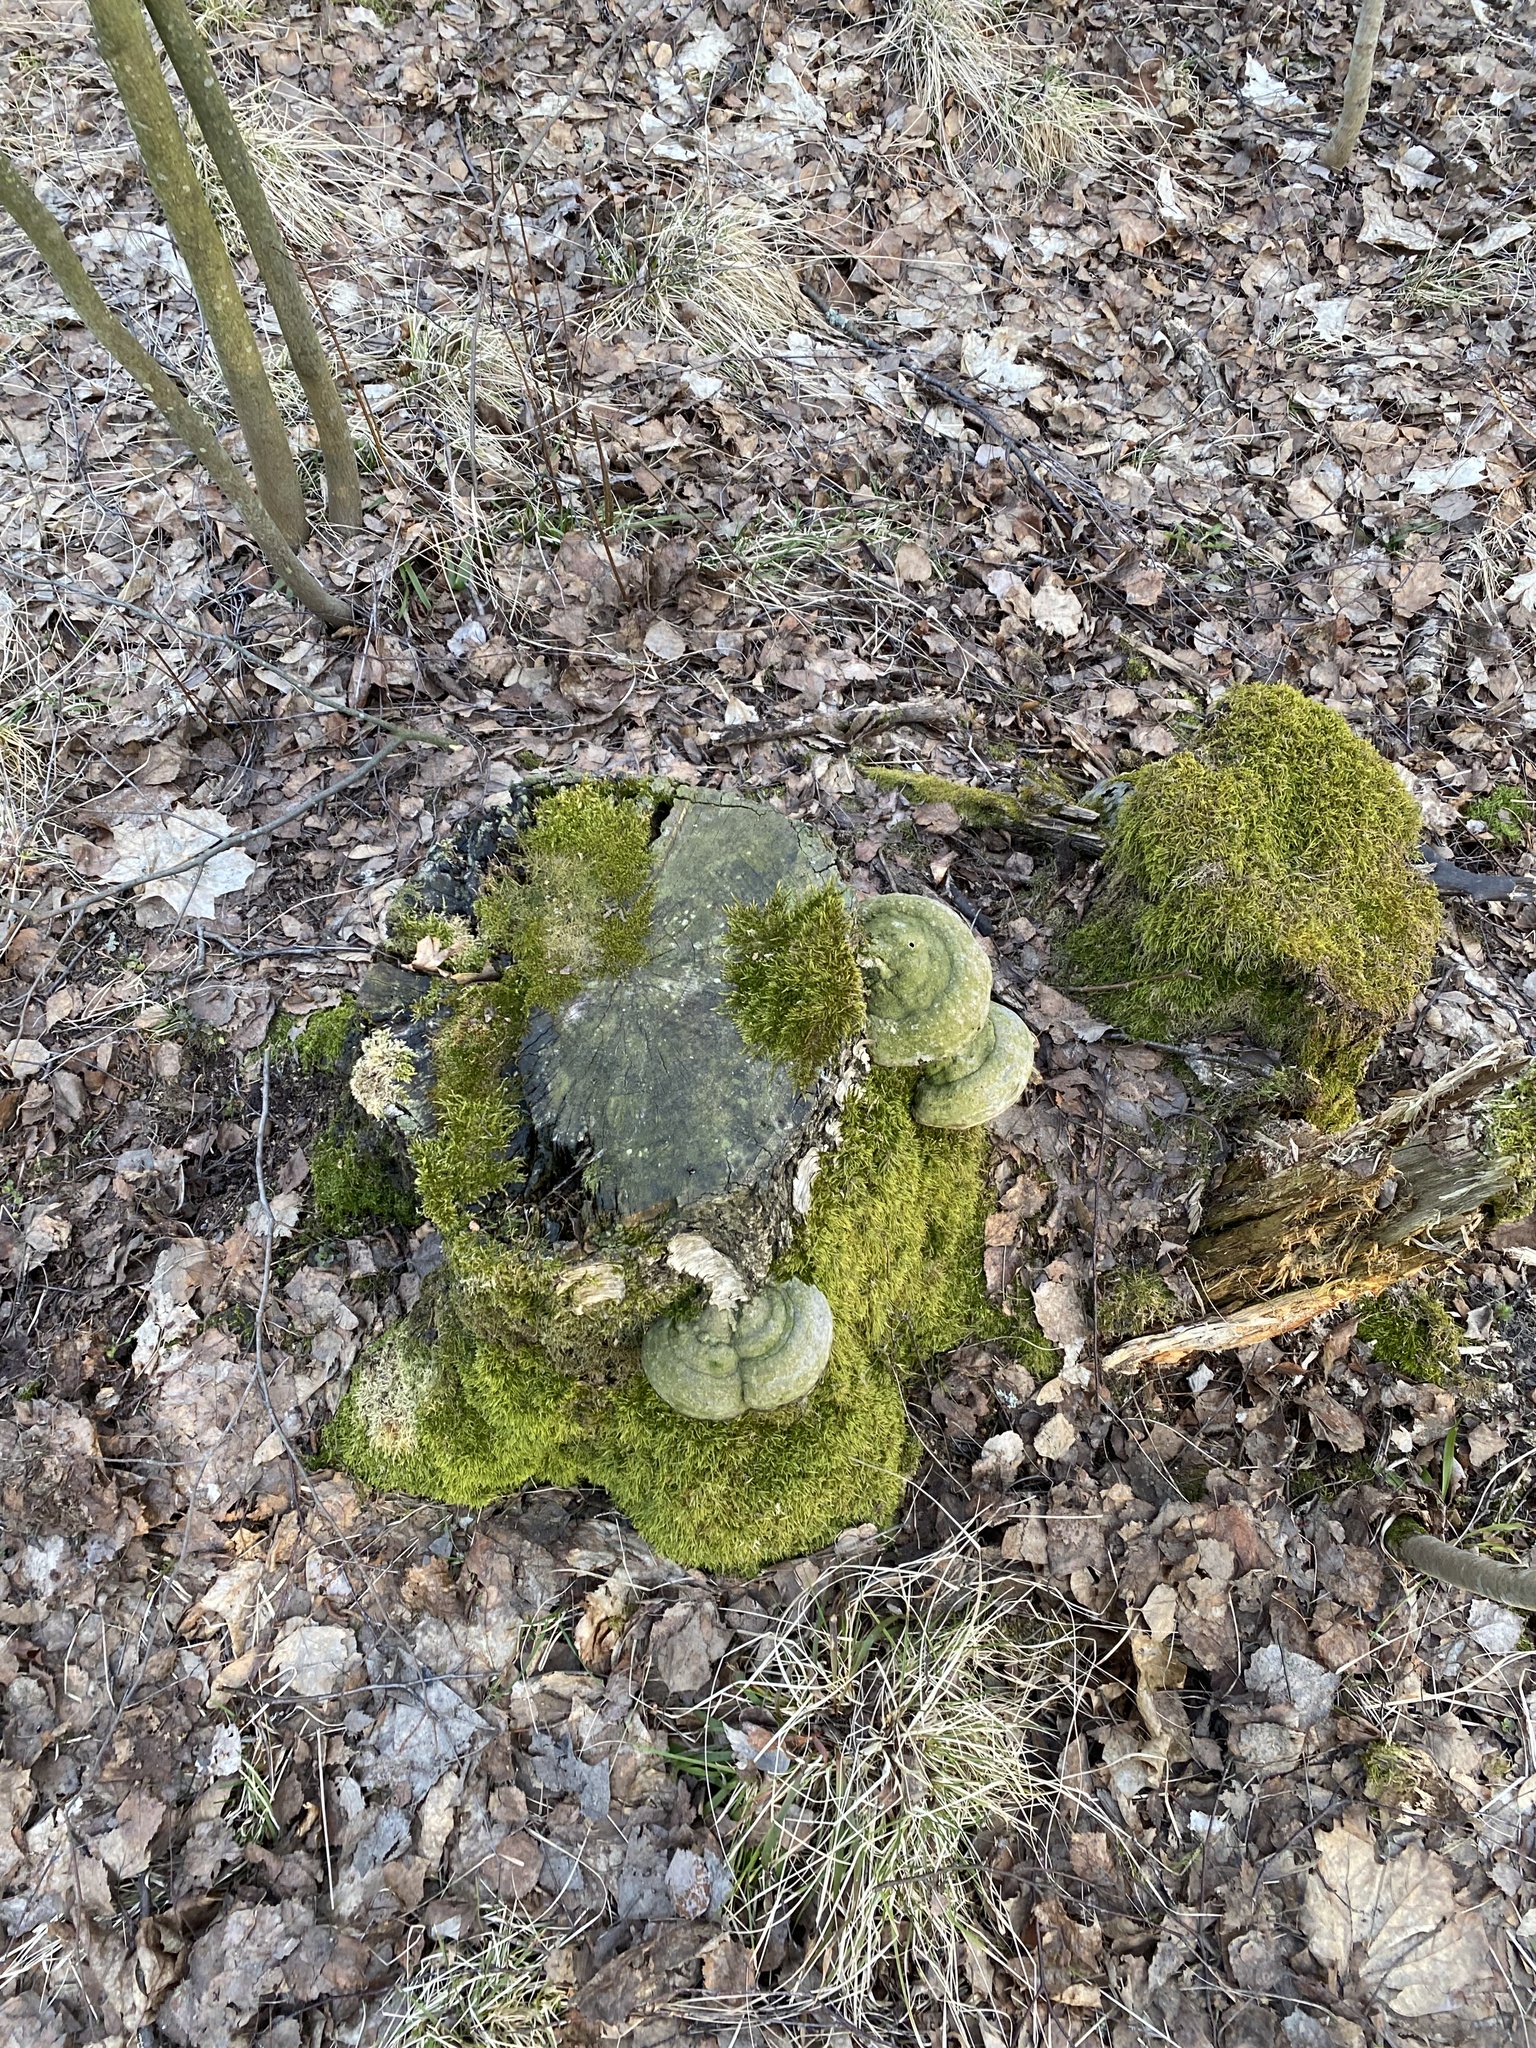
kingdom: Fungi
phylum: Basidiomycota
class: Agaricomycetes
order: Polyporales
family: Polyporaceae
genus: Fomes
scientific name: Fomes fomentarius
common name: Hoof fungus
